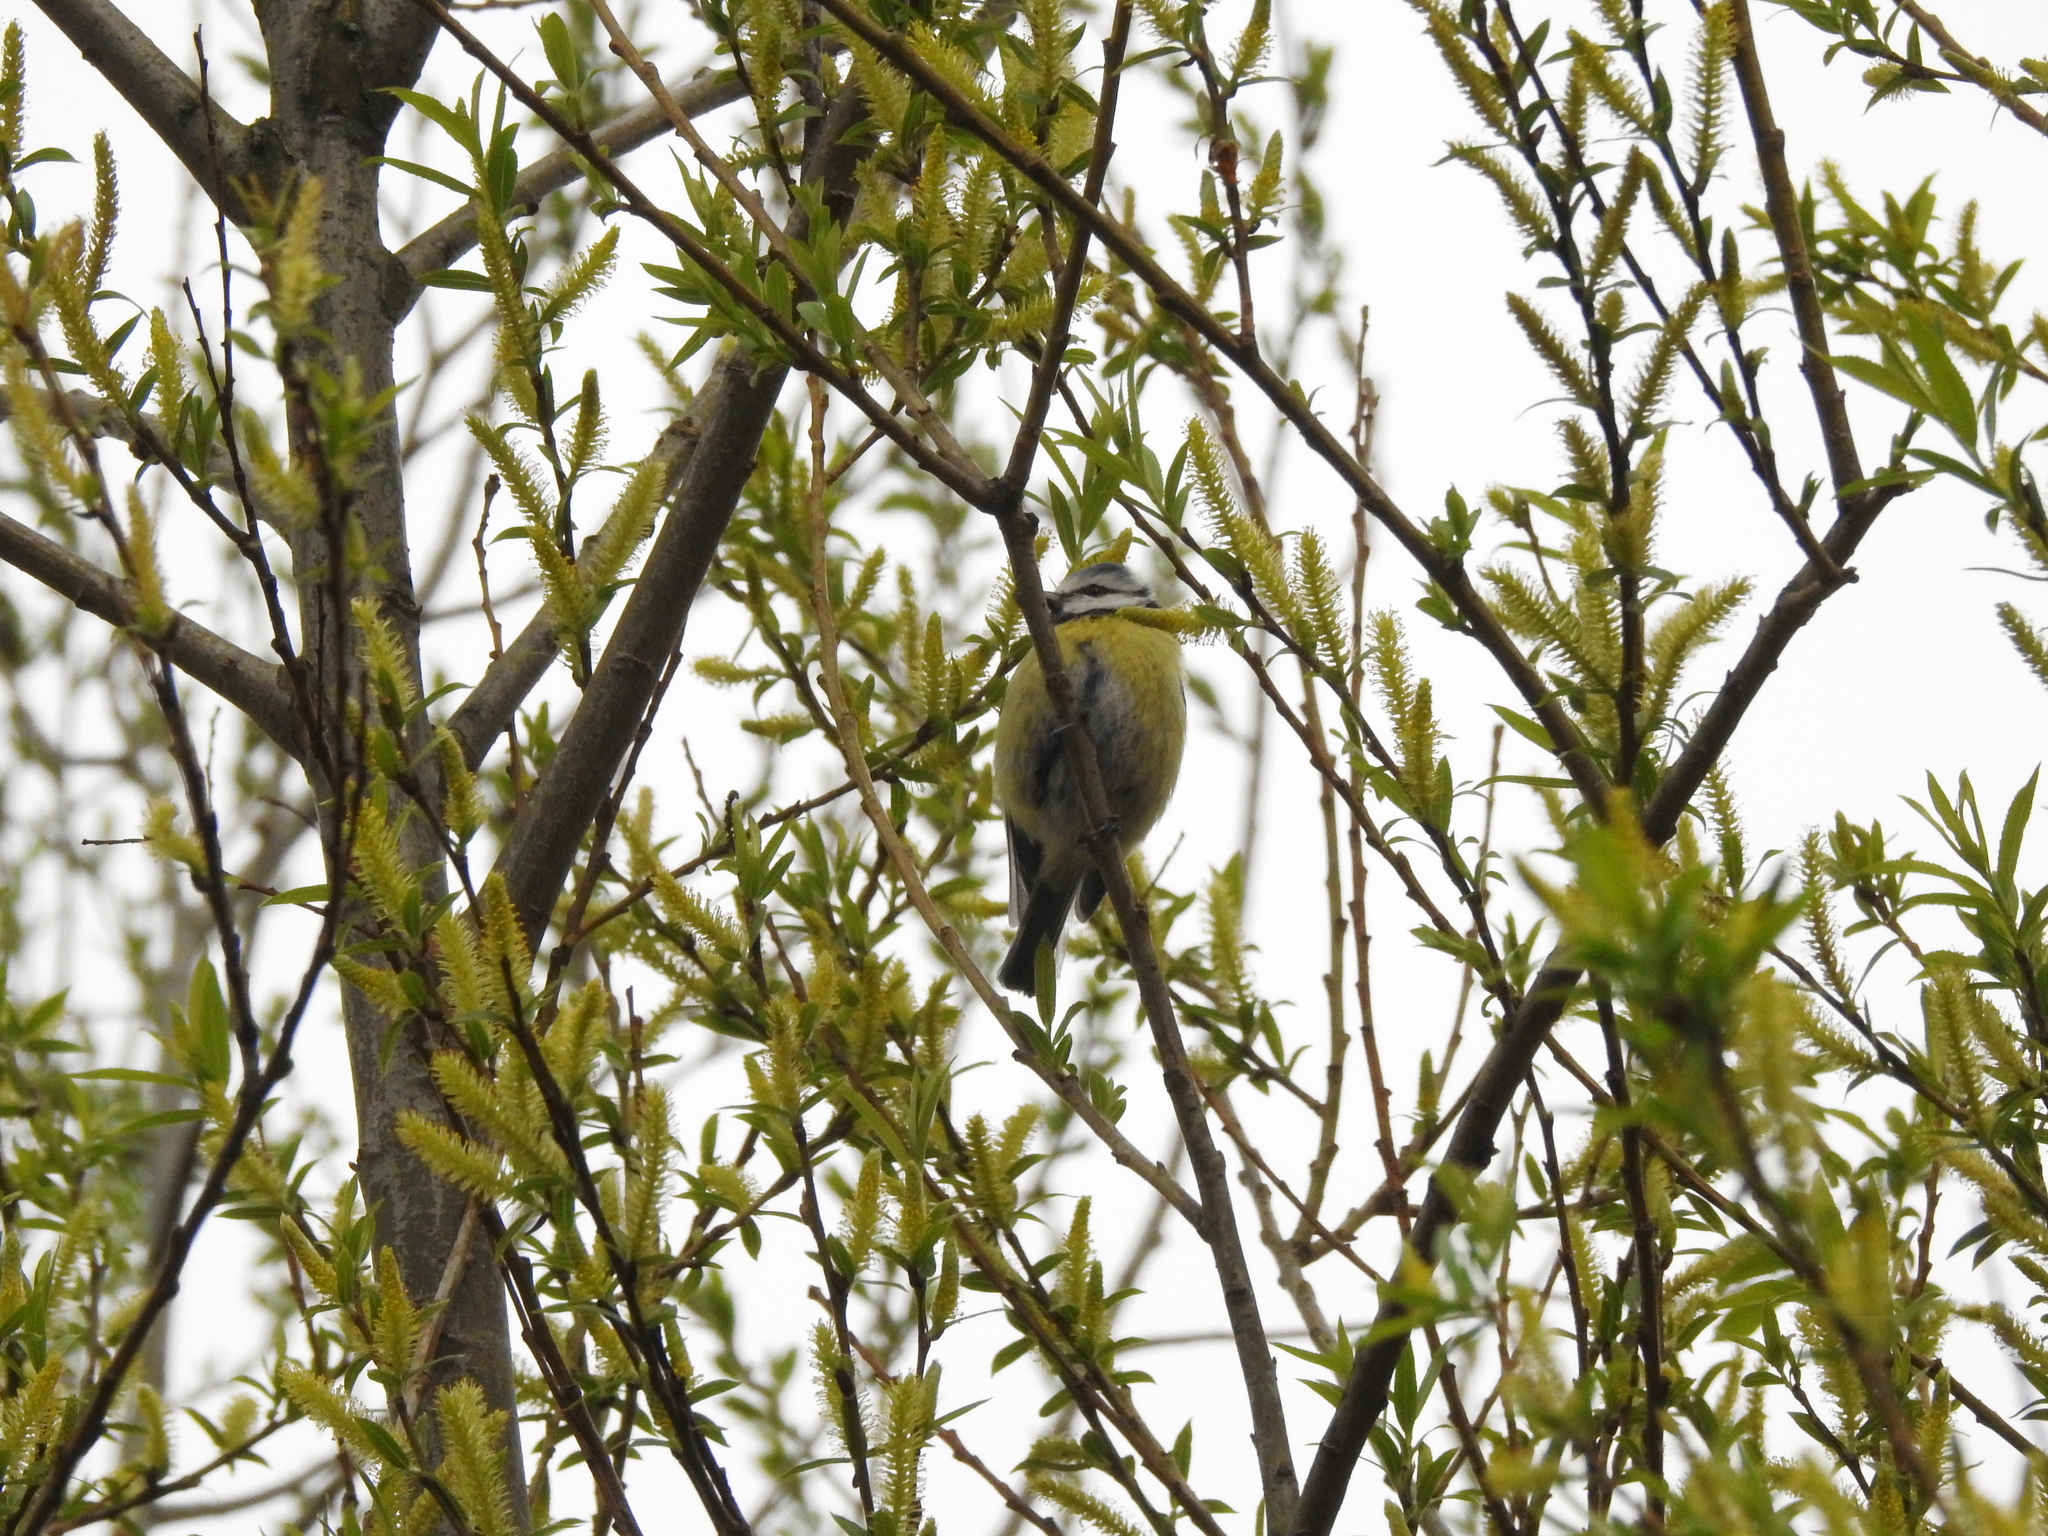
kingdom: Animalia
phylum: Chordata
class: Aves
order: Passeriformes
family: Paridae
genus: Cyanistes
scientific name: Cyanistes caeruleus
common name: Eurasian blue tit
